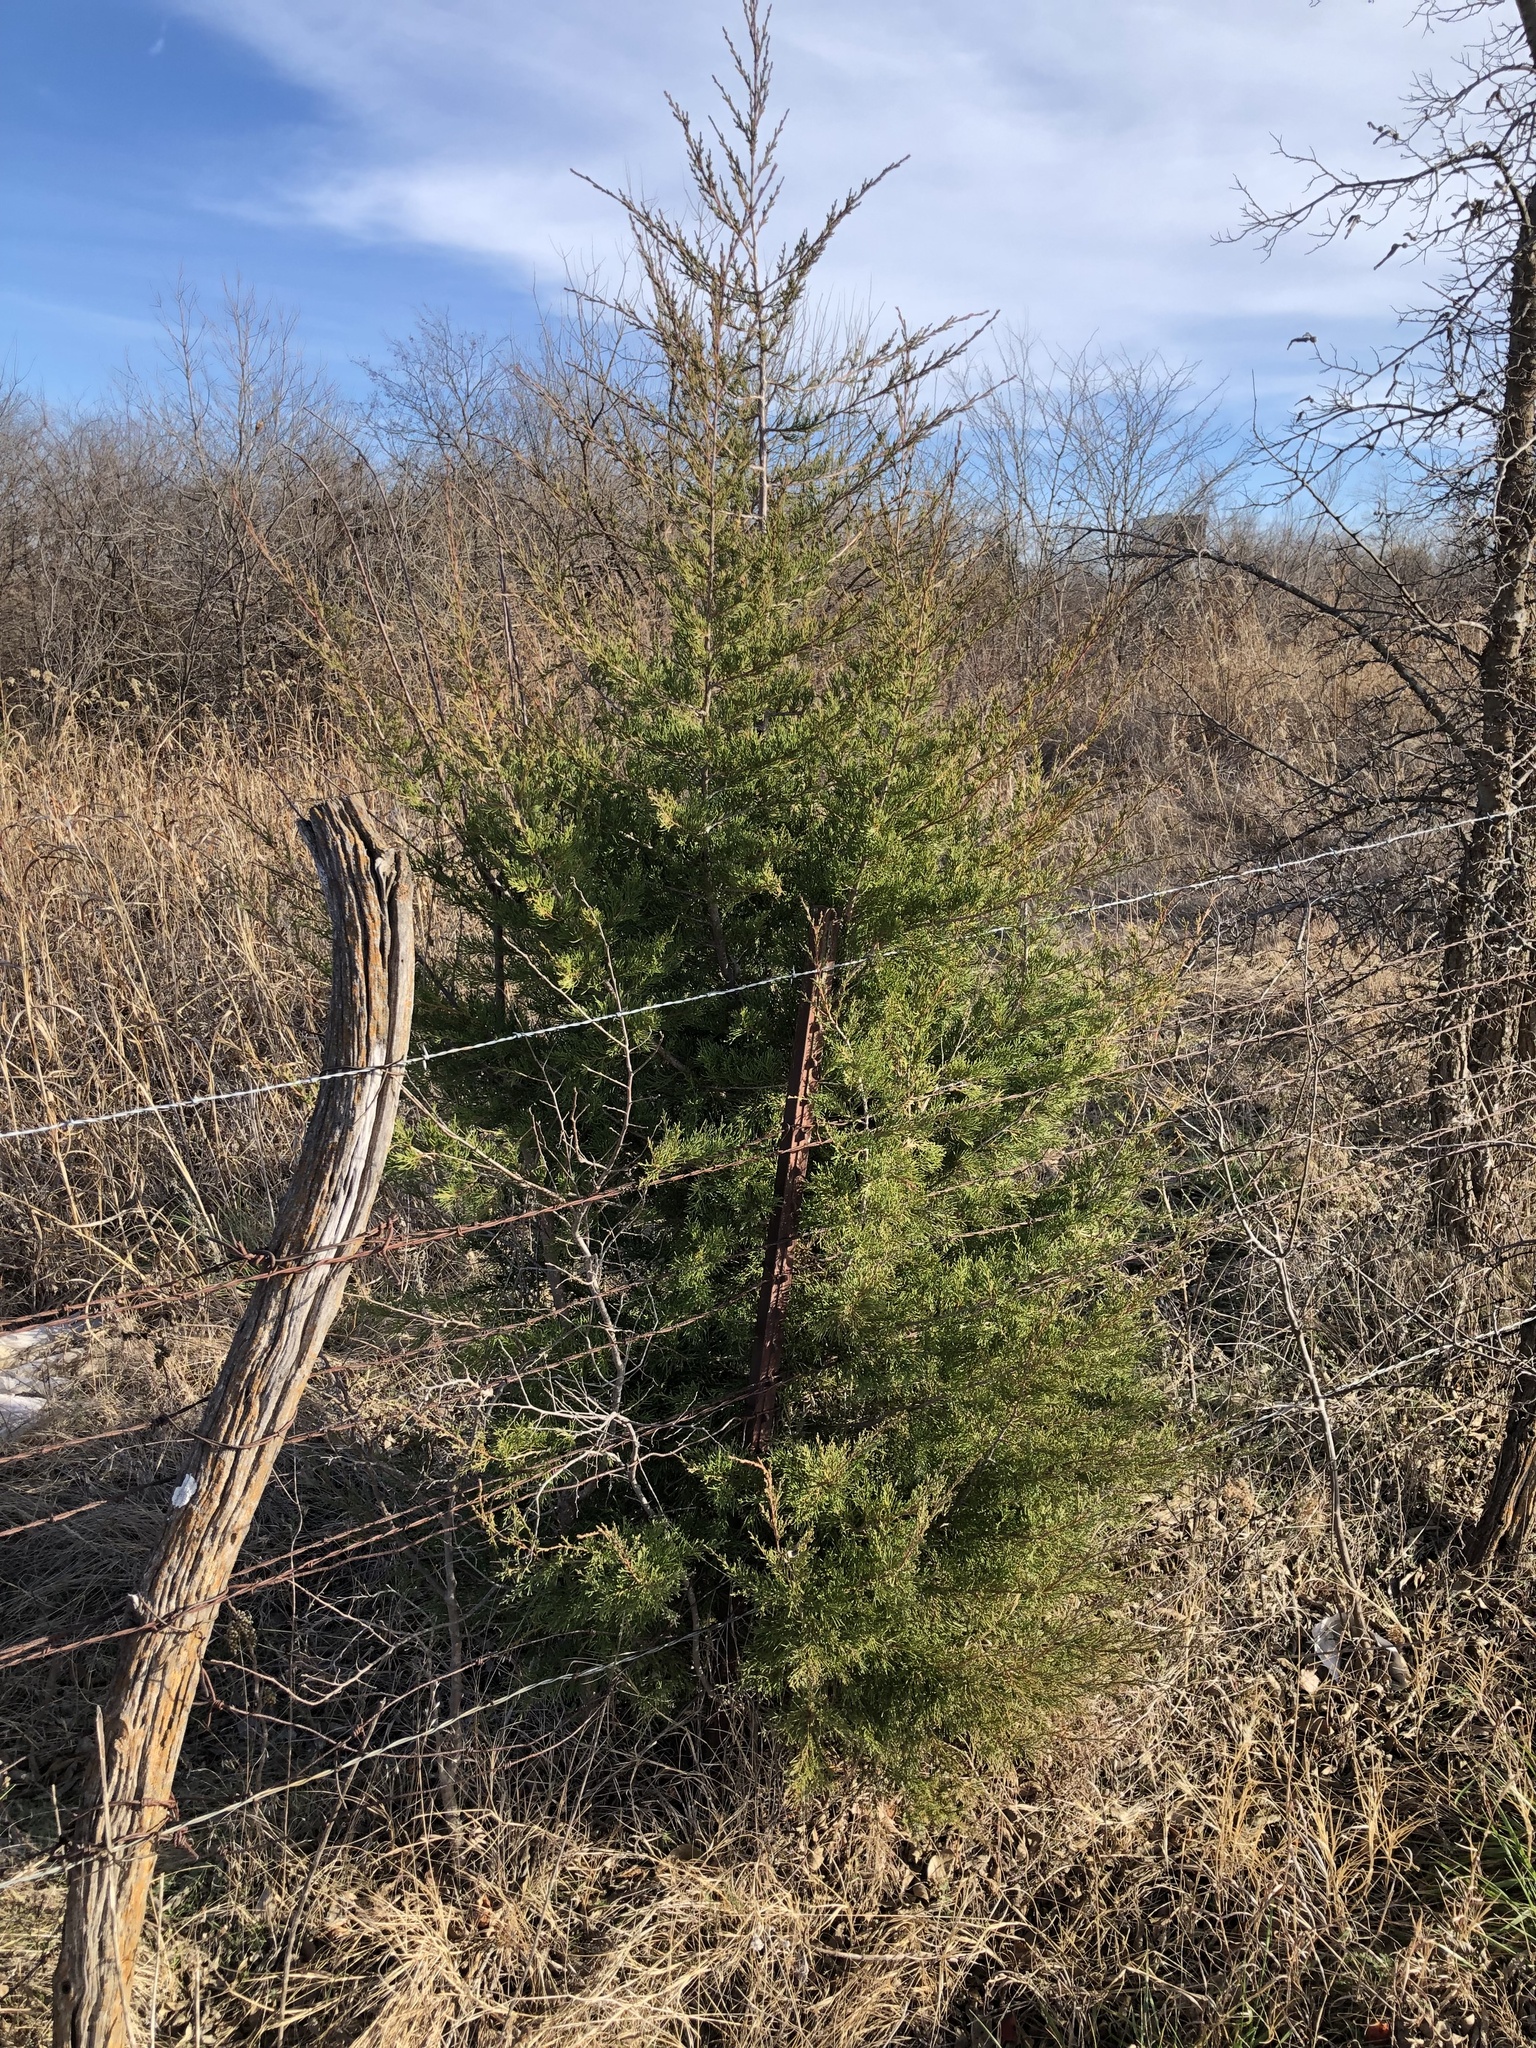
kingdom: Plantae
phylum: Tracheophyta
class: Pinopsida
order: Pinales
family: Cupressaceae
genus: Juniperus
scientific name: Juniperus virginiana
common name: Red juniper
